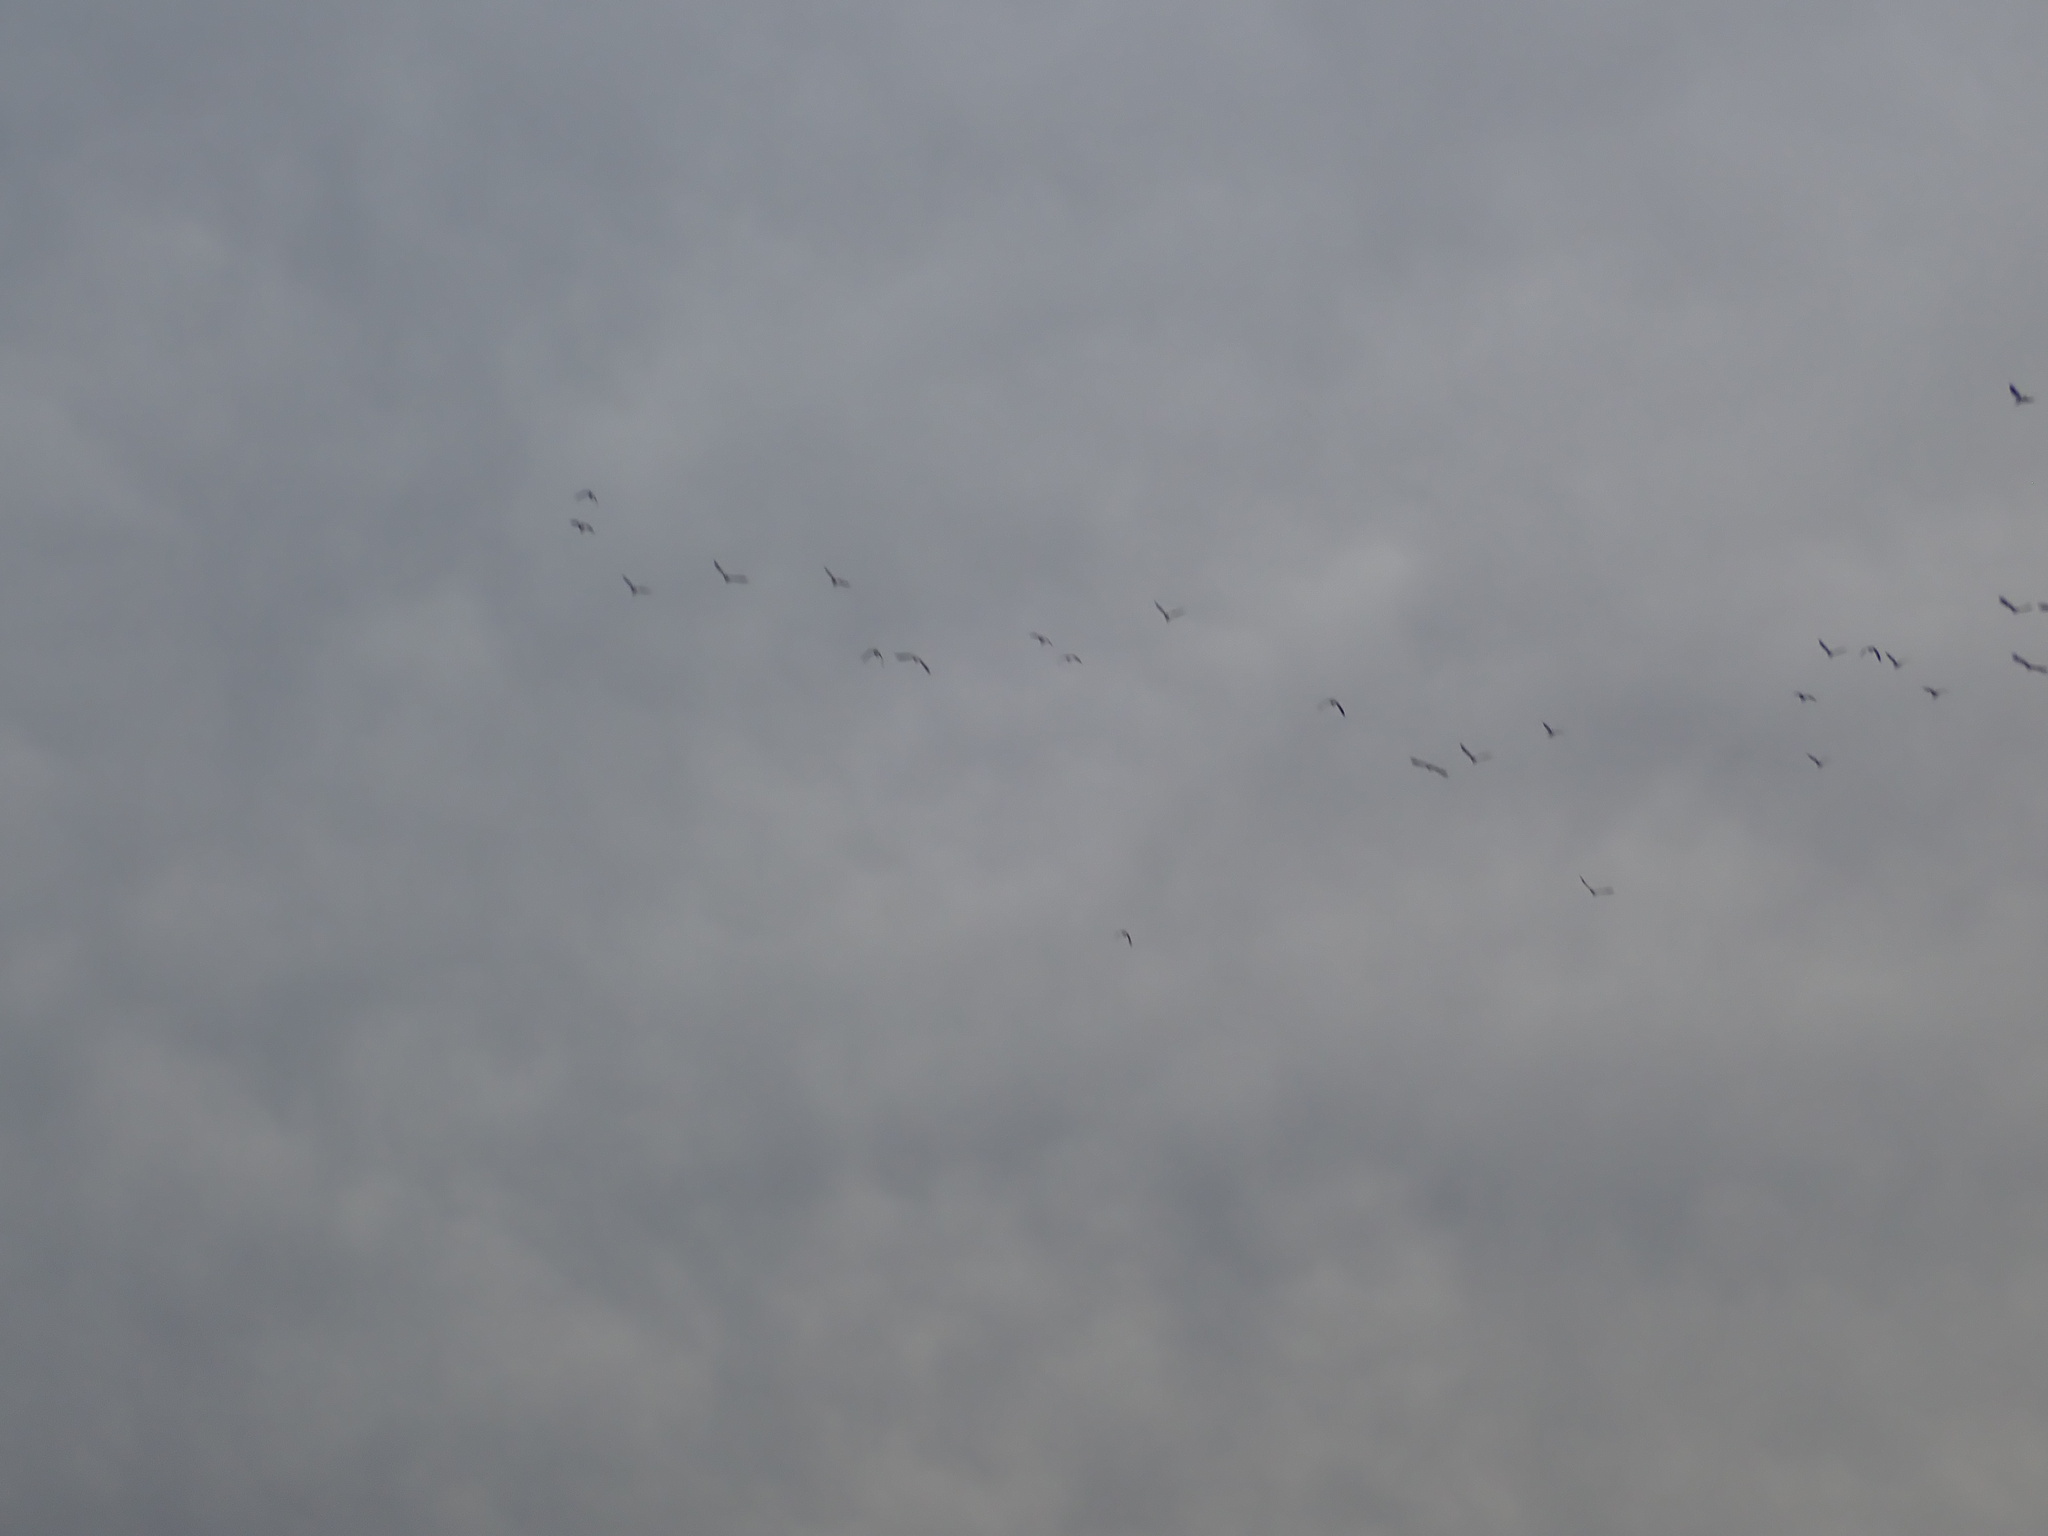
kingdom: Animalia
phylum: Chordata
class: Aves
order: Charadriiformes
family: Charadriidae
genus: Vanellus
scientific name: Vanellus miles
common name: Masked lapwing
